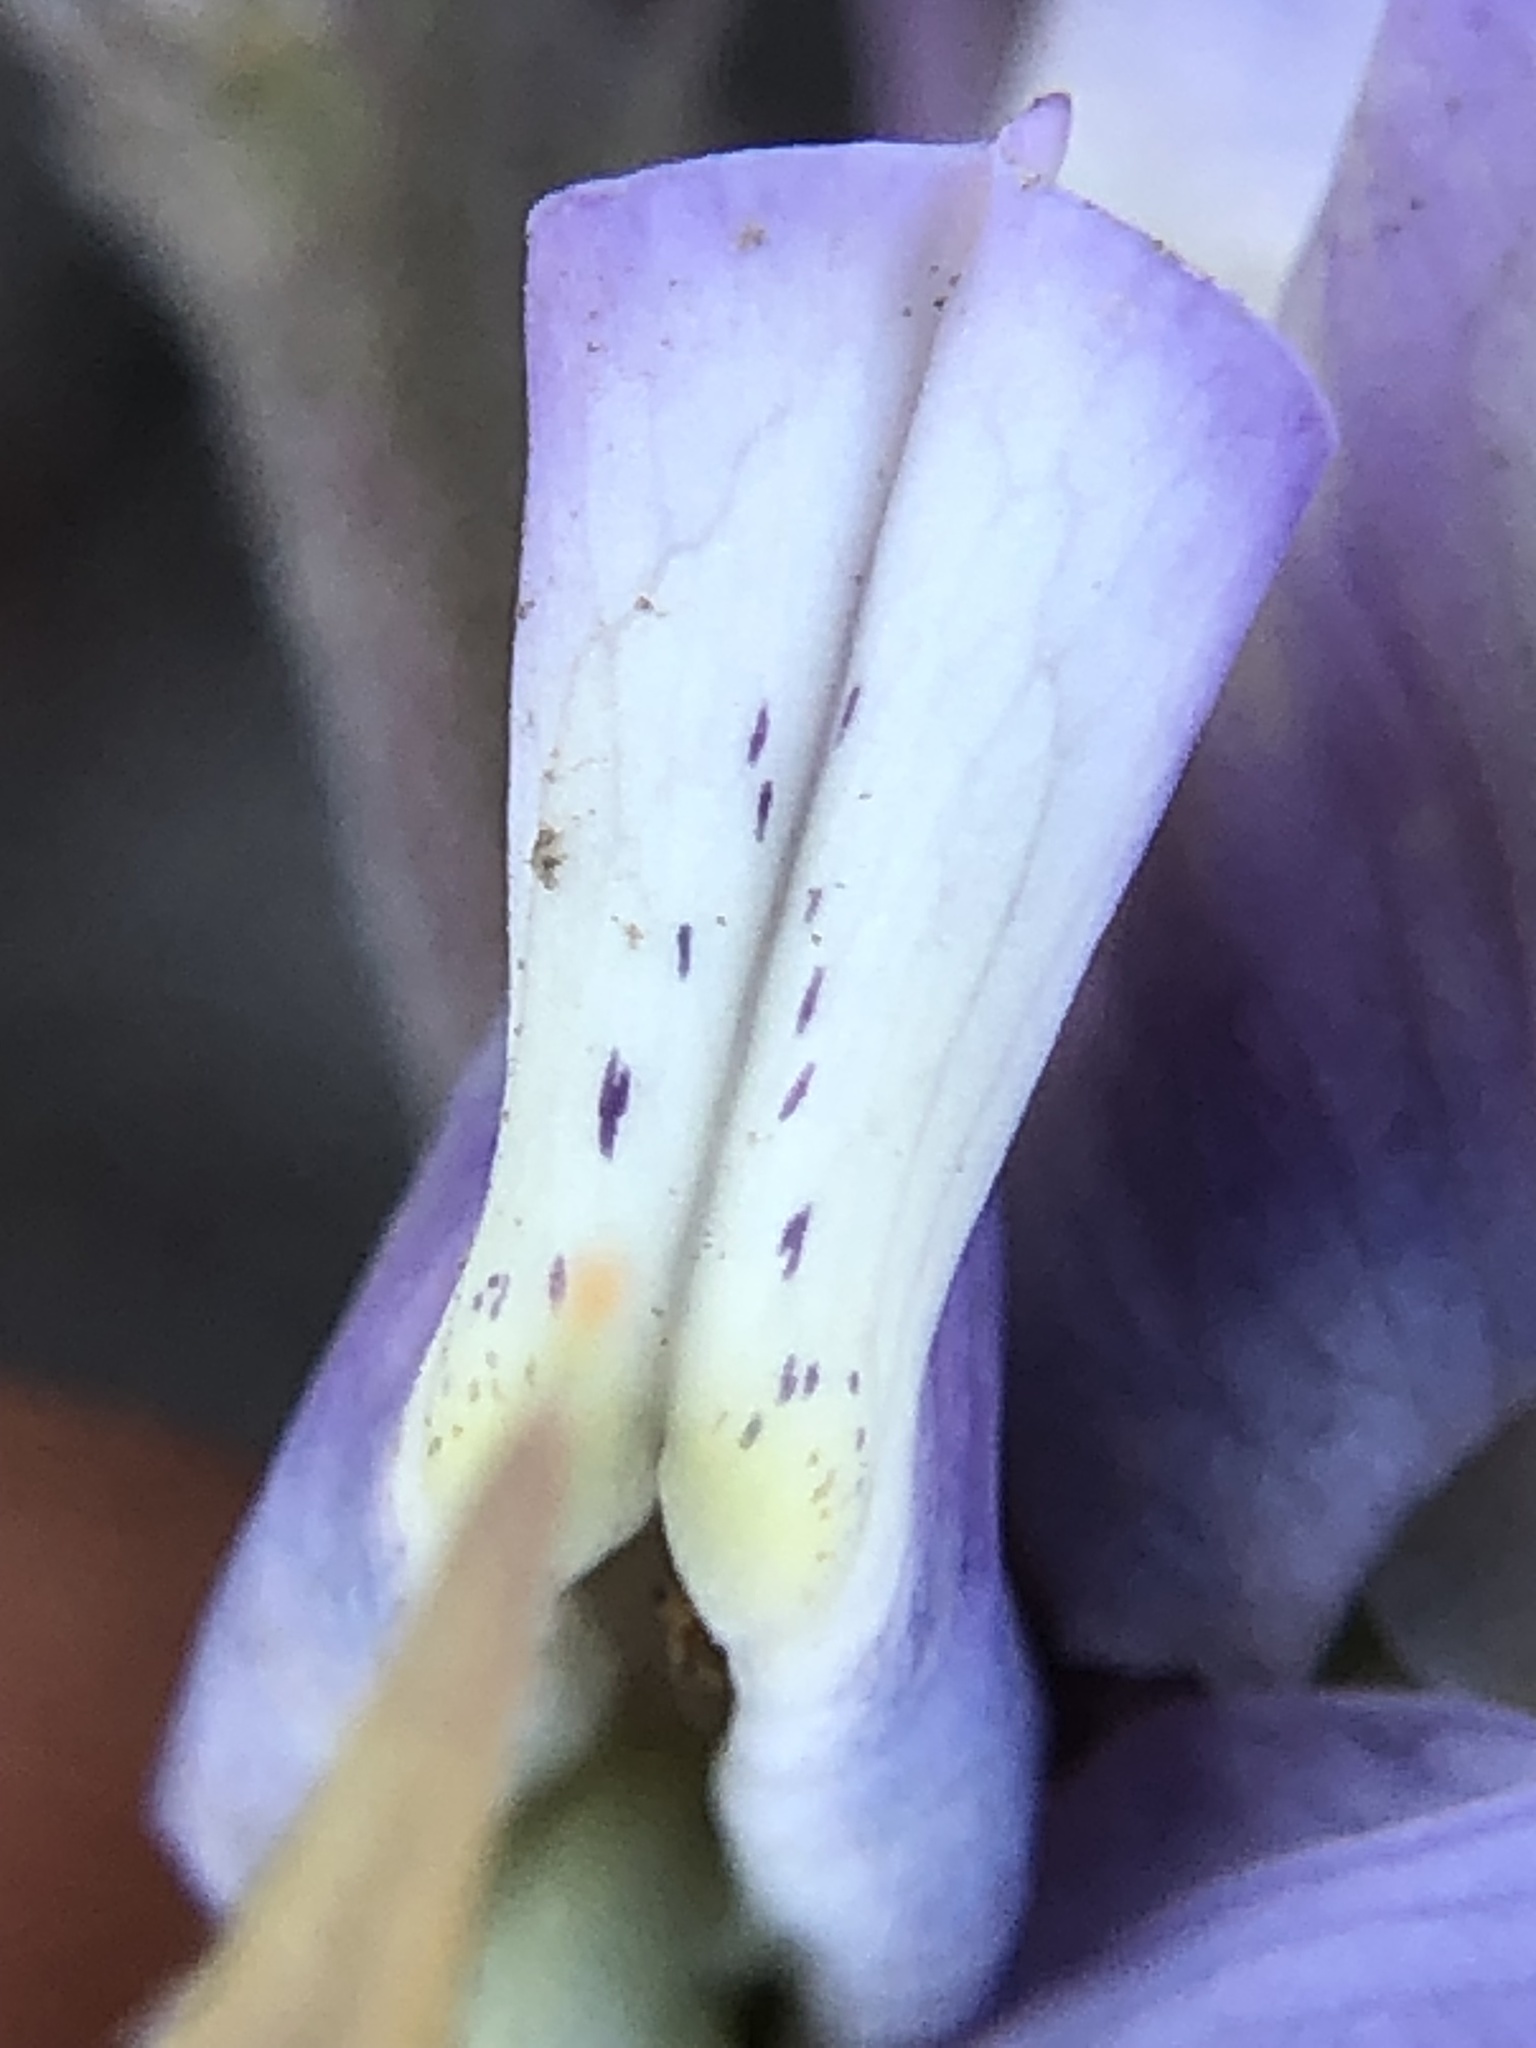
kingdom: Plantae
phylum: Tracheophyta
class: Magnoliopsida
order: Fabales
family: Fabaceae
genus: Lupinus
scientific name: Lupinus formosus
